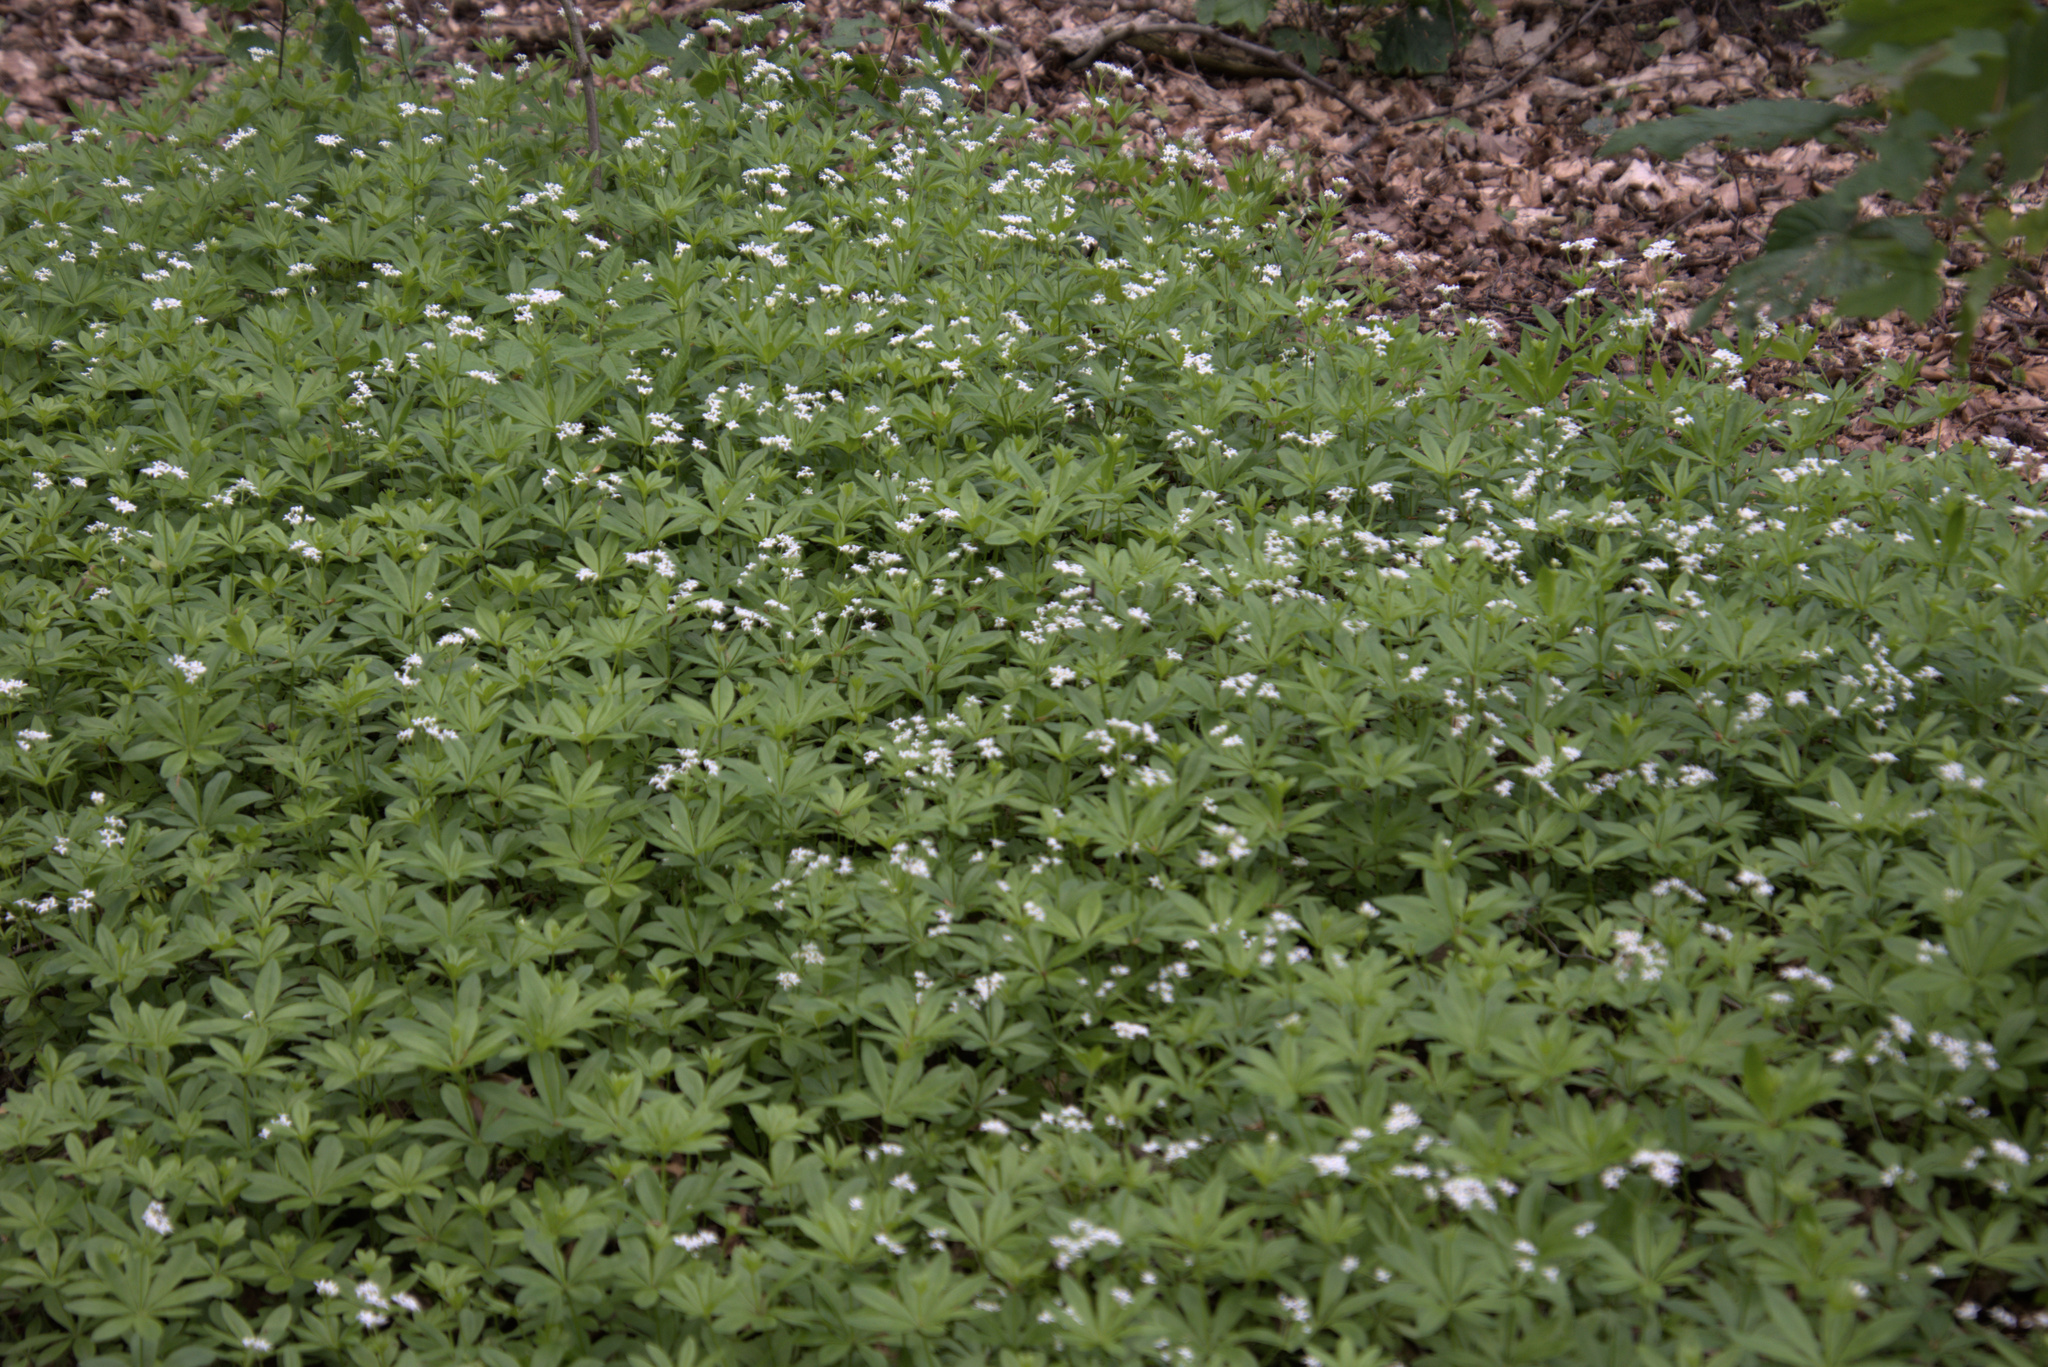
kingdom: Plantae
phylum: Tracheophyta
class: Magnoliopsida
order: Gentianales
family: Rubiaceae
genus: Galium
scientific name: Galium odoratum
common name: Sweet woodruff
